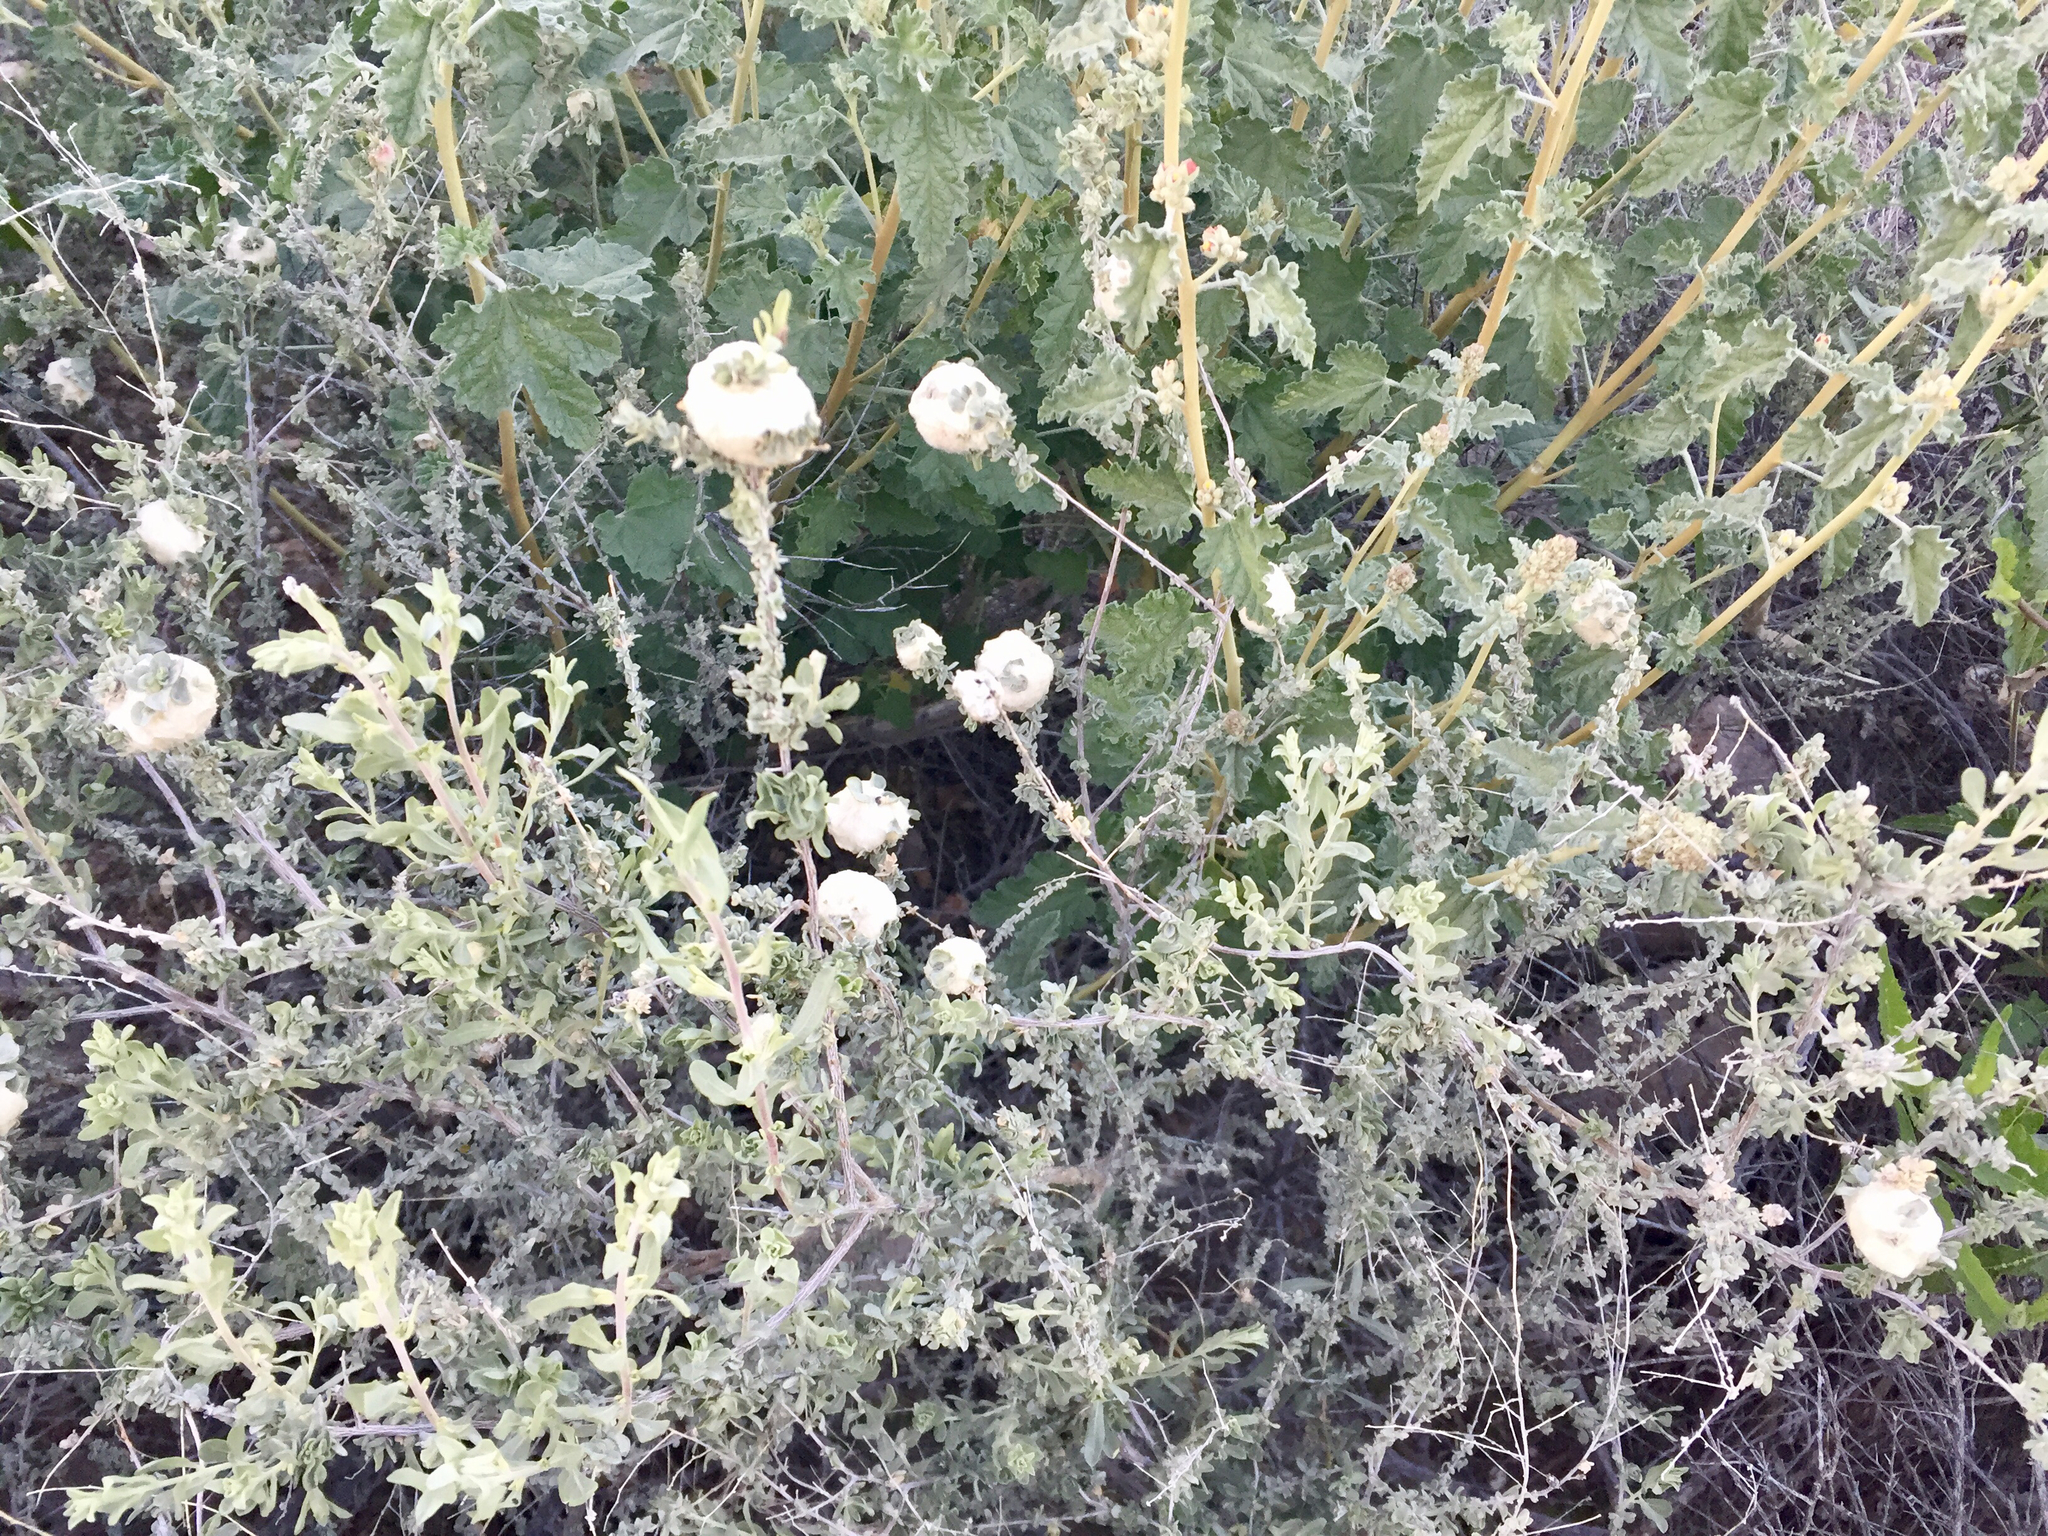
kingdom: Animalia
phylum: Arthropoda
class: Insecta
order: Diptera
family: Cecidomyiidae
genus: Asphondylia
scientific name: Asphondylia floccosa
